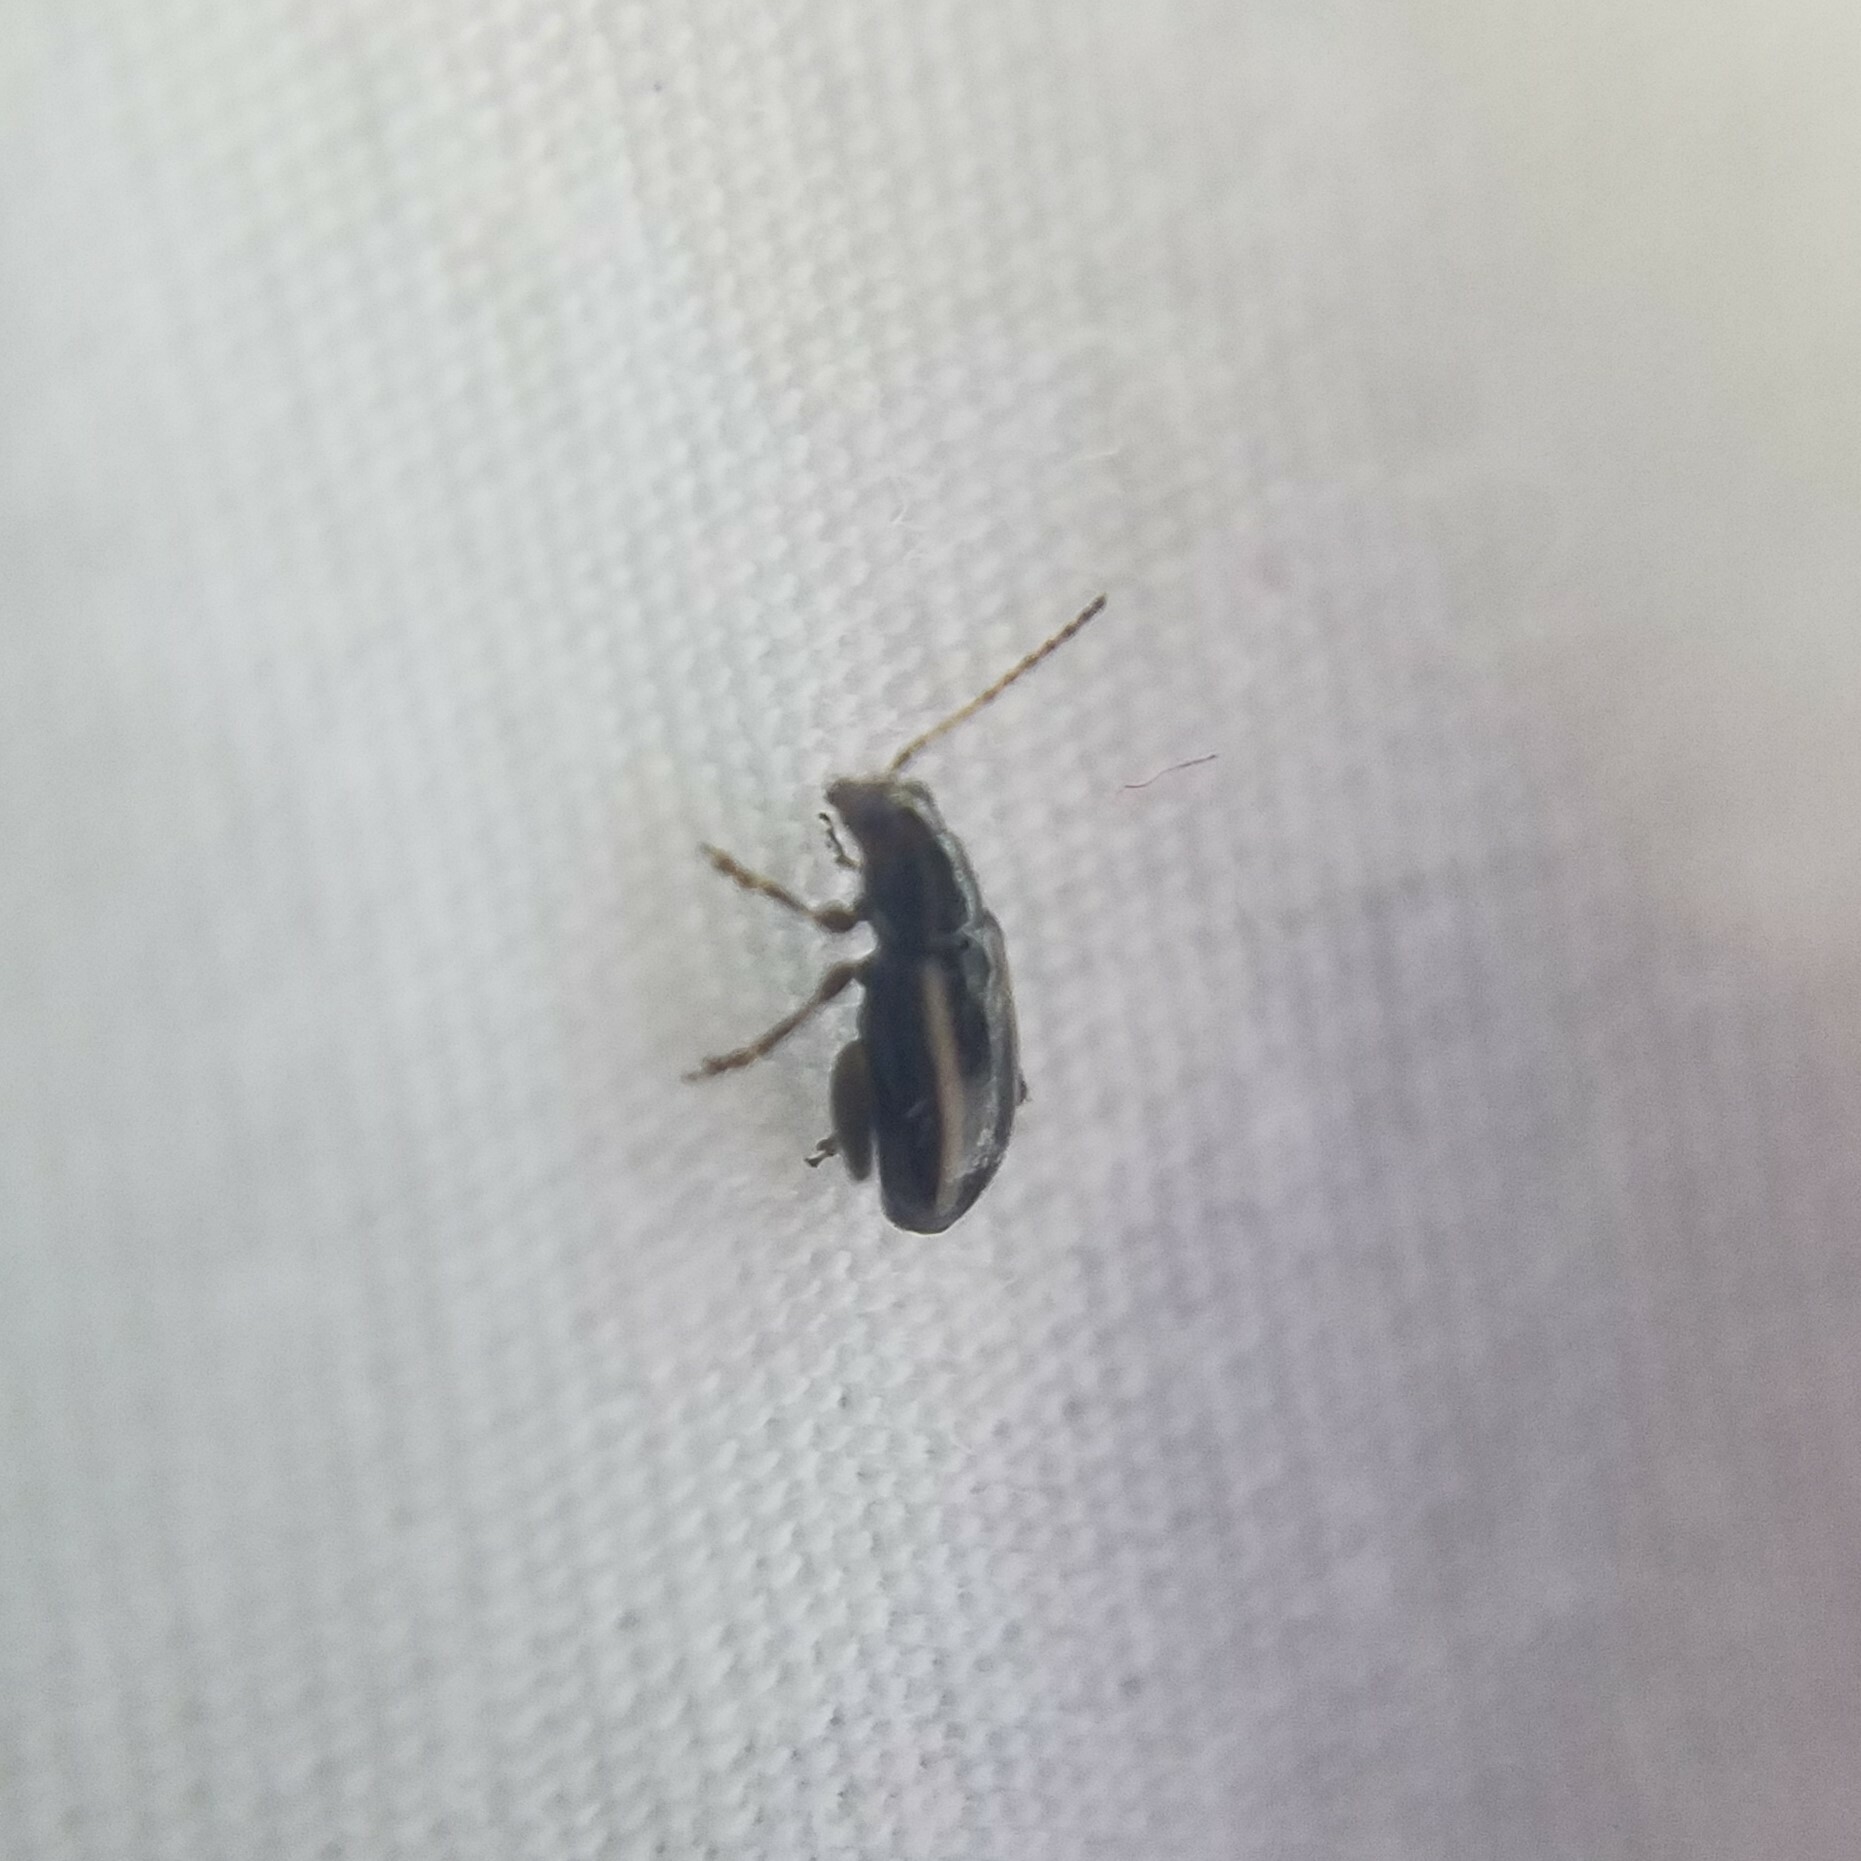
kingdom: Animalia
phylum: Arthropoda
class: Insecta
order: Coleoptera
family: Chrysomelidae
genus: Systena
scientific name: Systena elongata
